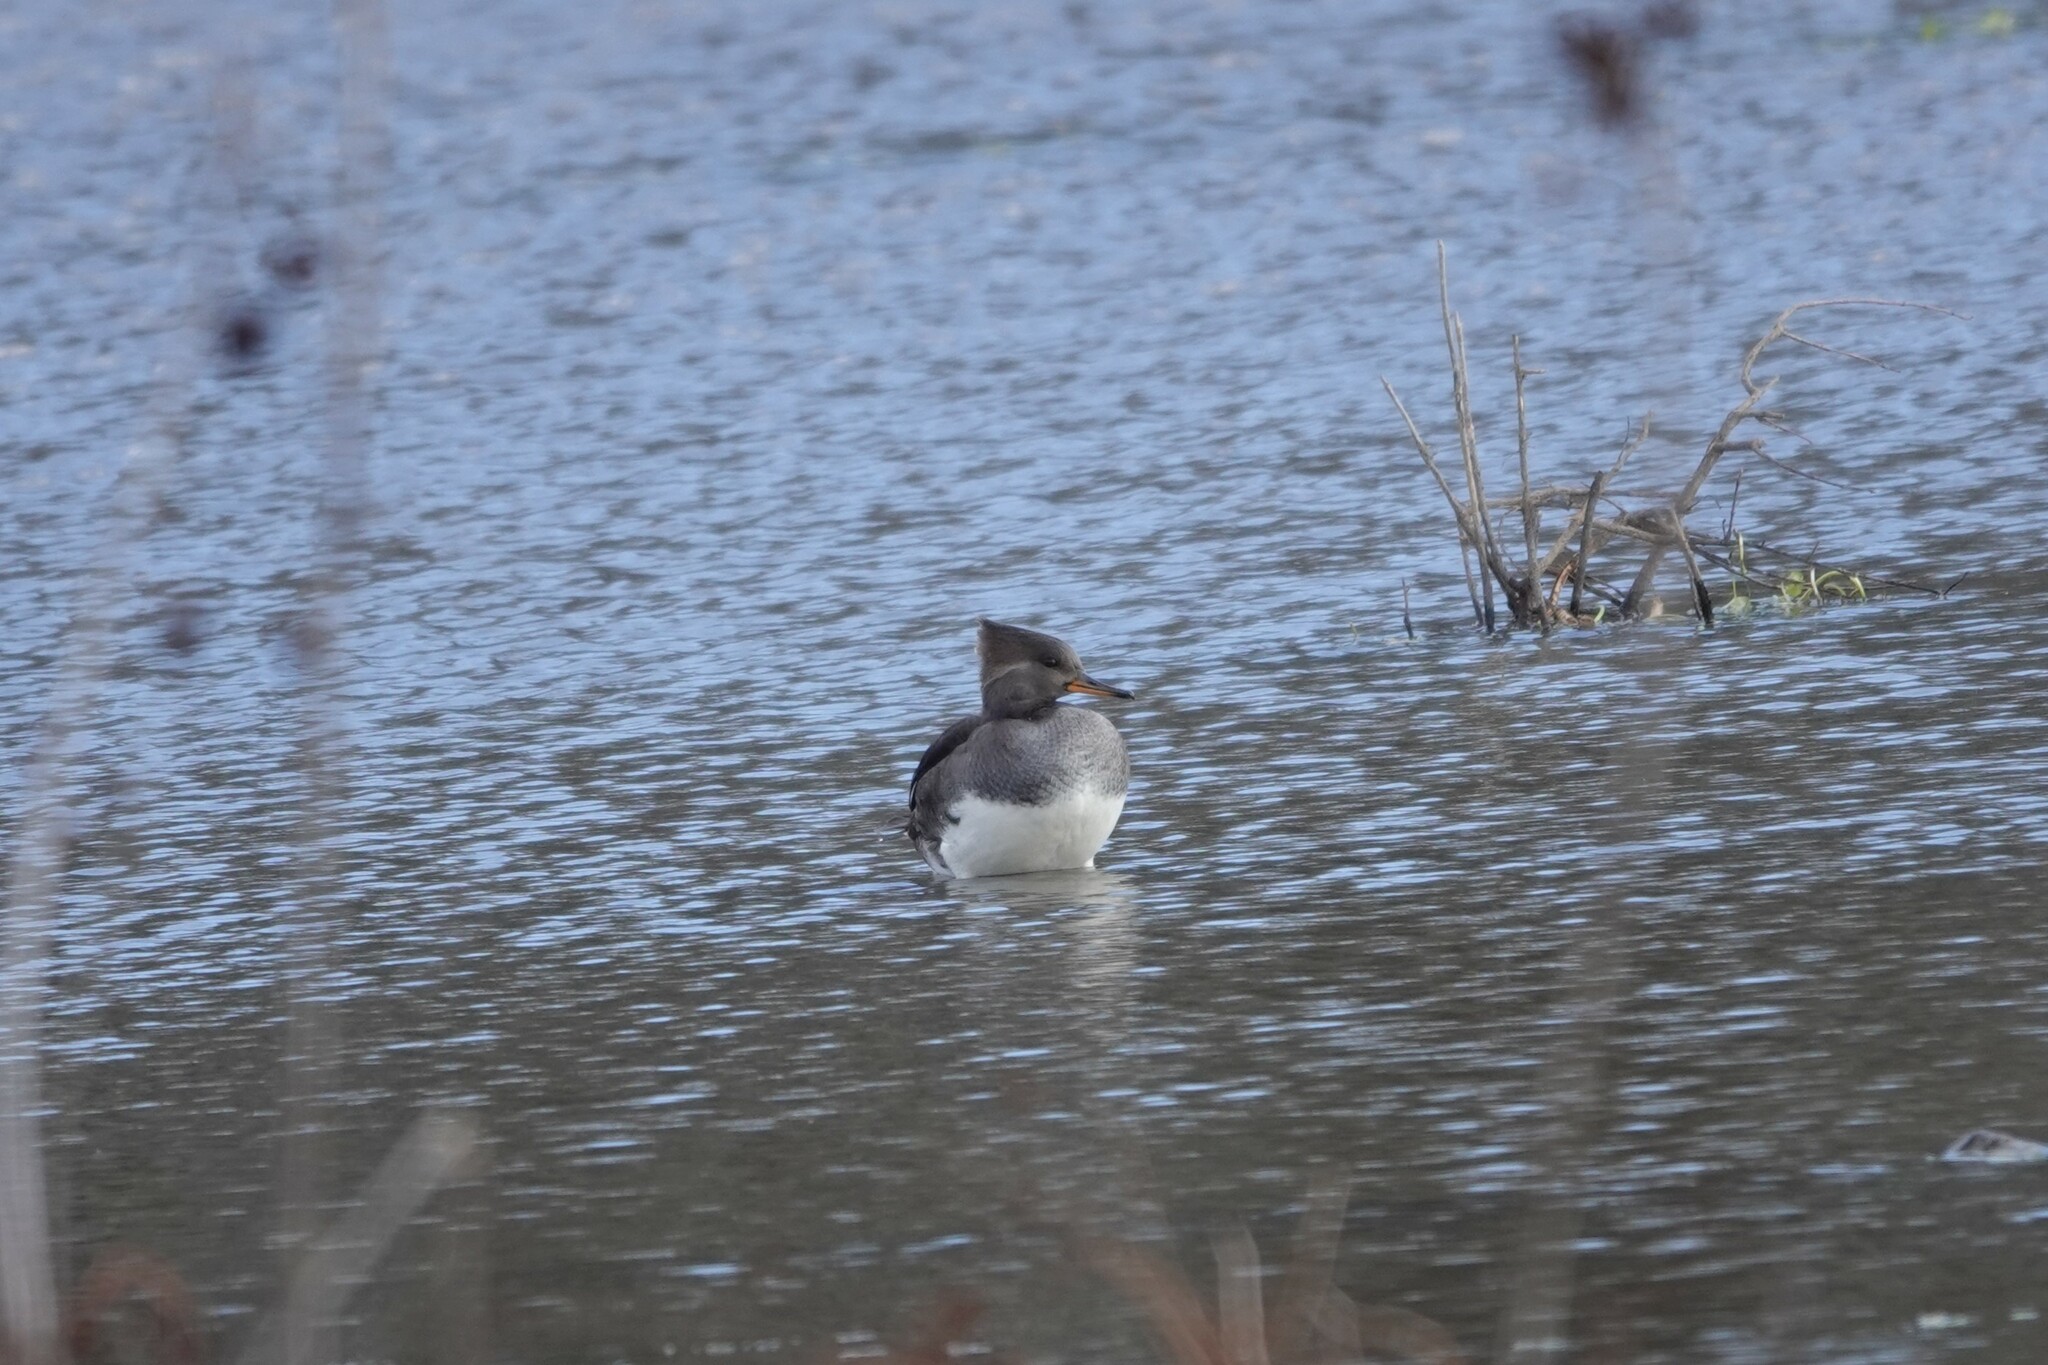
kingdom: Animalia
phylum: Chordata
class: Aves
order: Anseriformes
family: Anatidae
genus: Lophodytes
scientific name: Lophodytes cucullatus
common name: Hooded merganser
